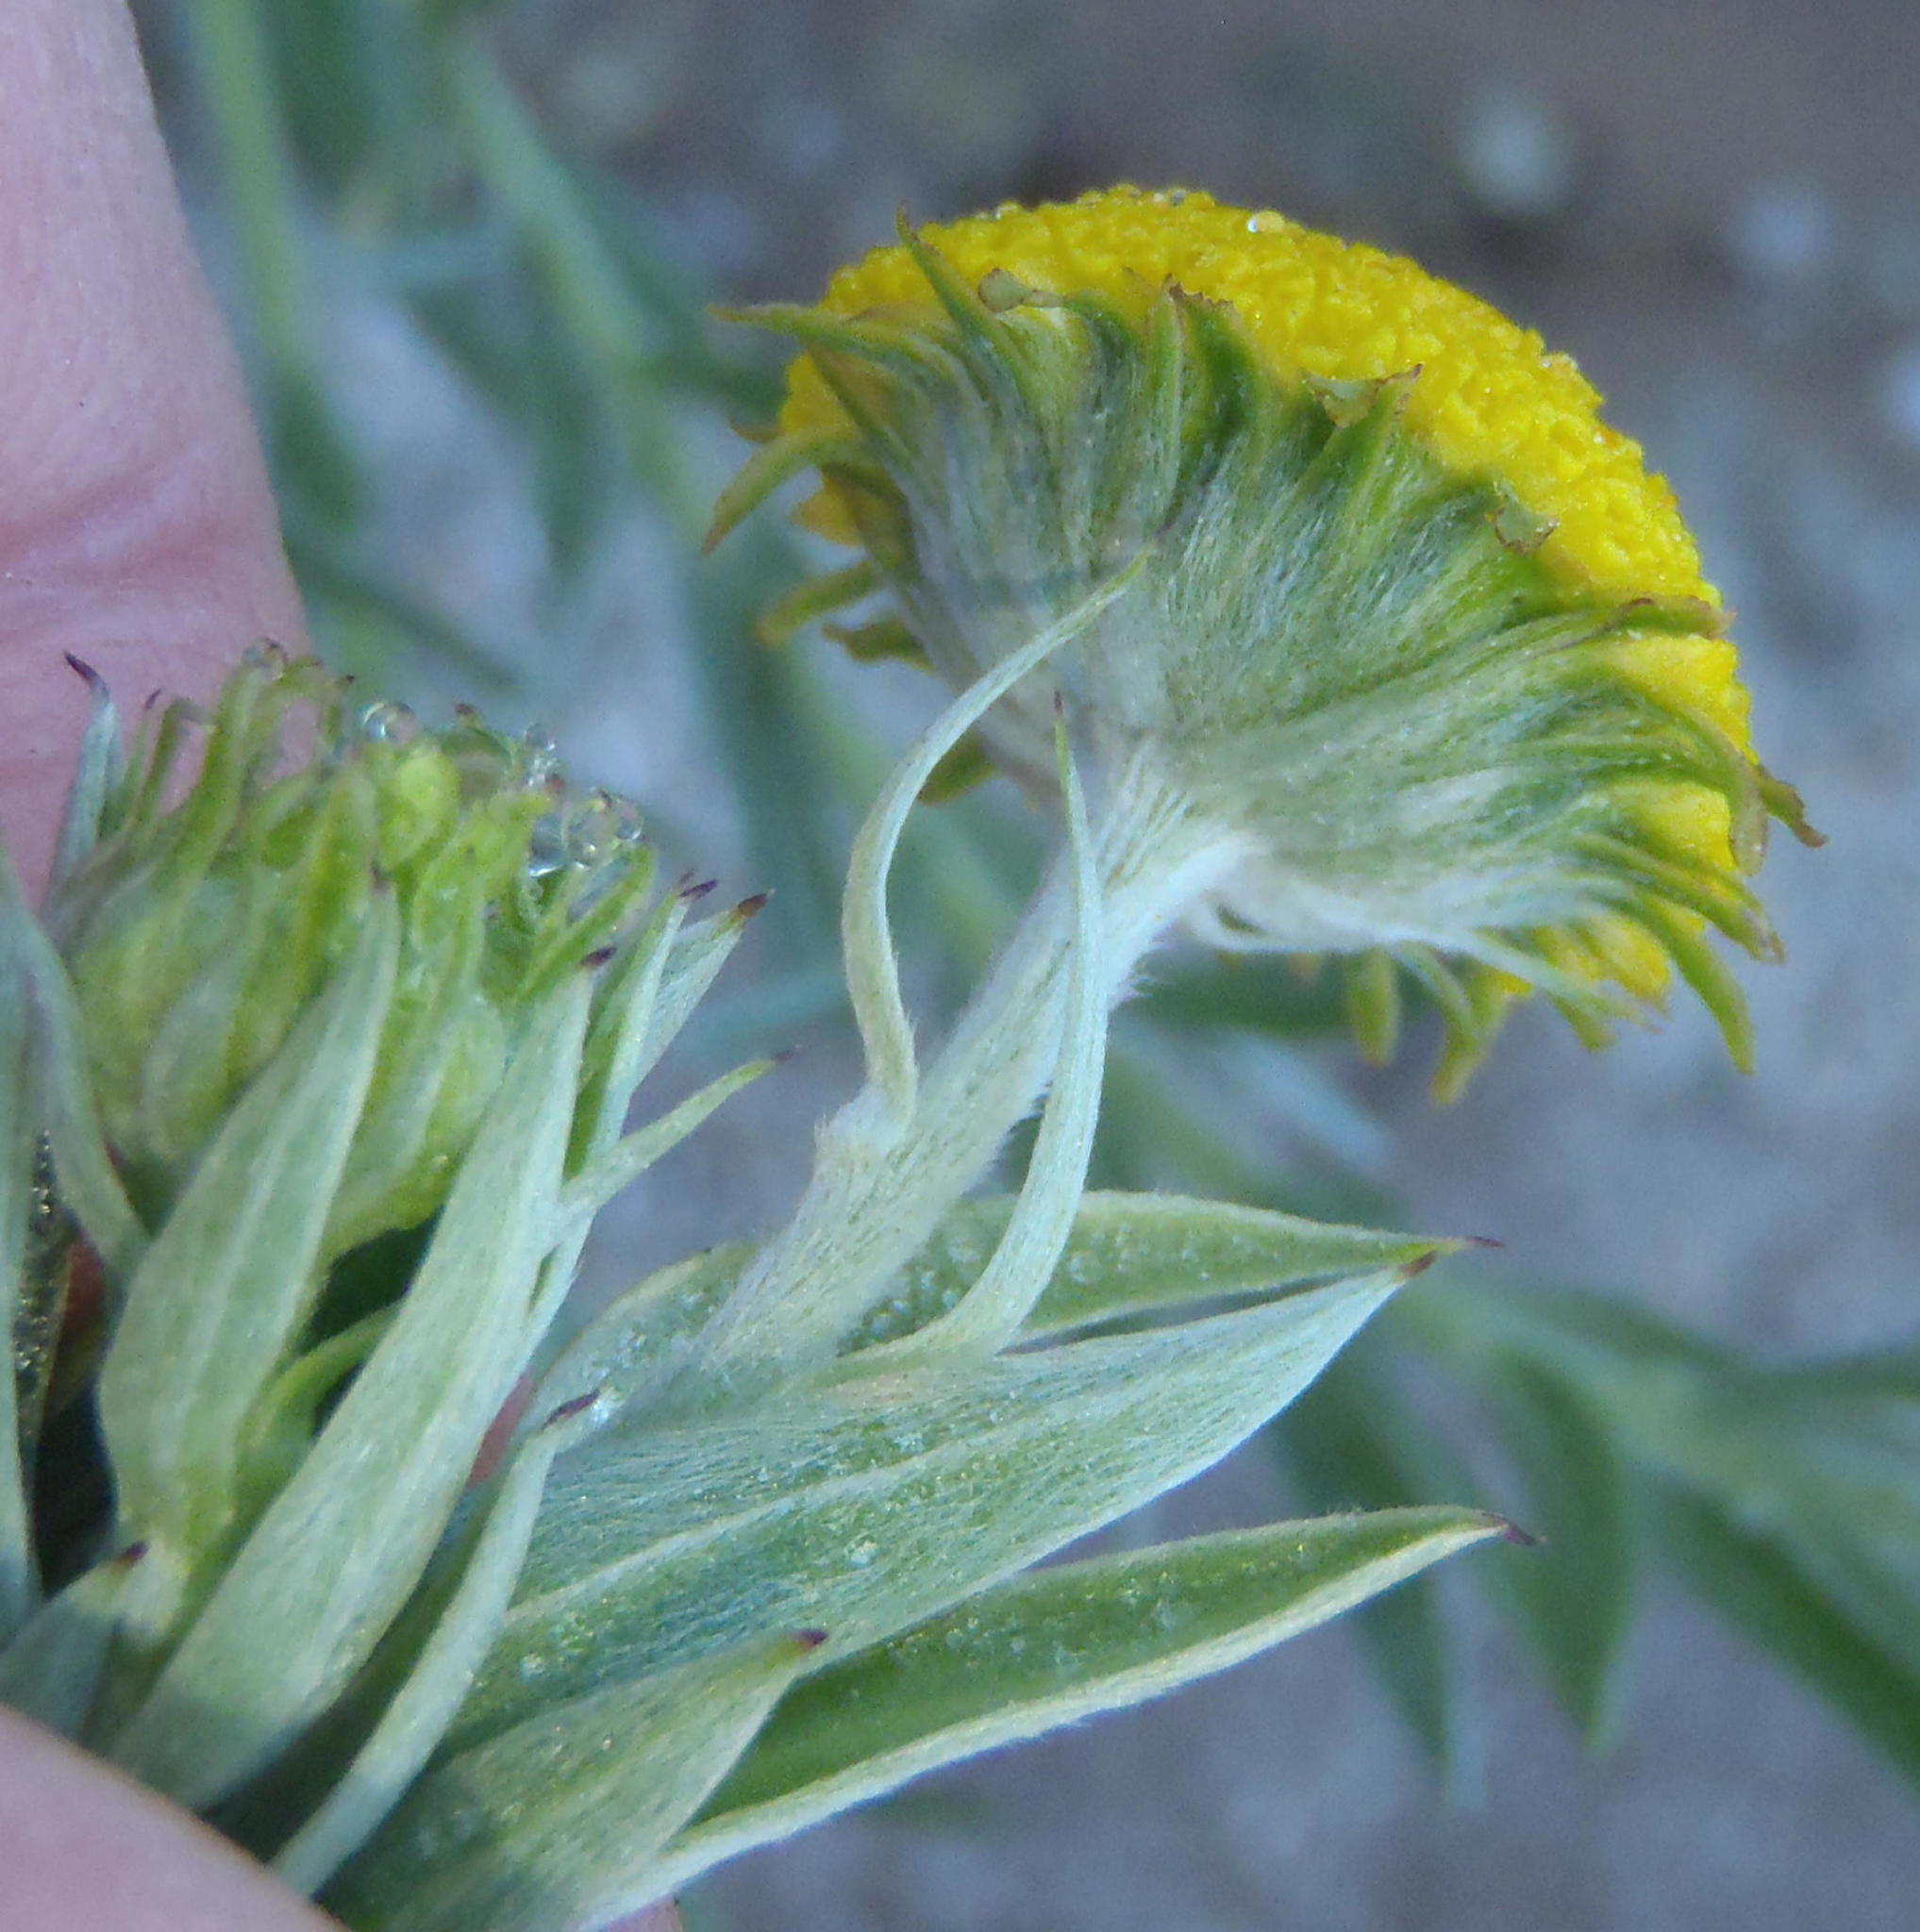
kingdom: Plantae
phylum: Tracheophyta
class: Magnoliopsida
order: Asterales
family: Asteraceae
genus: Schistostephium
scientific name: Schistostephium umbellatum
